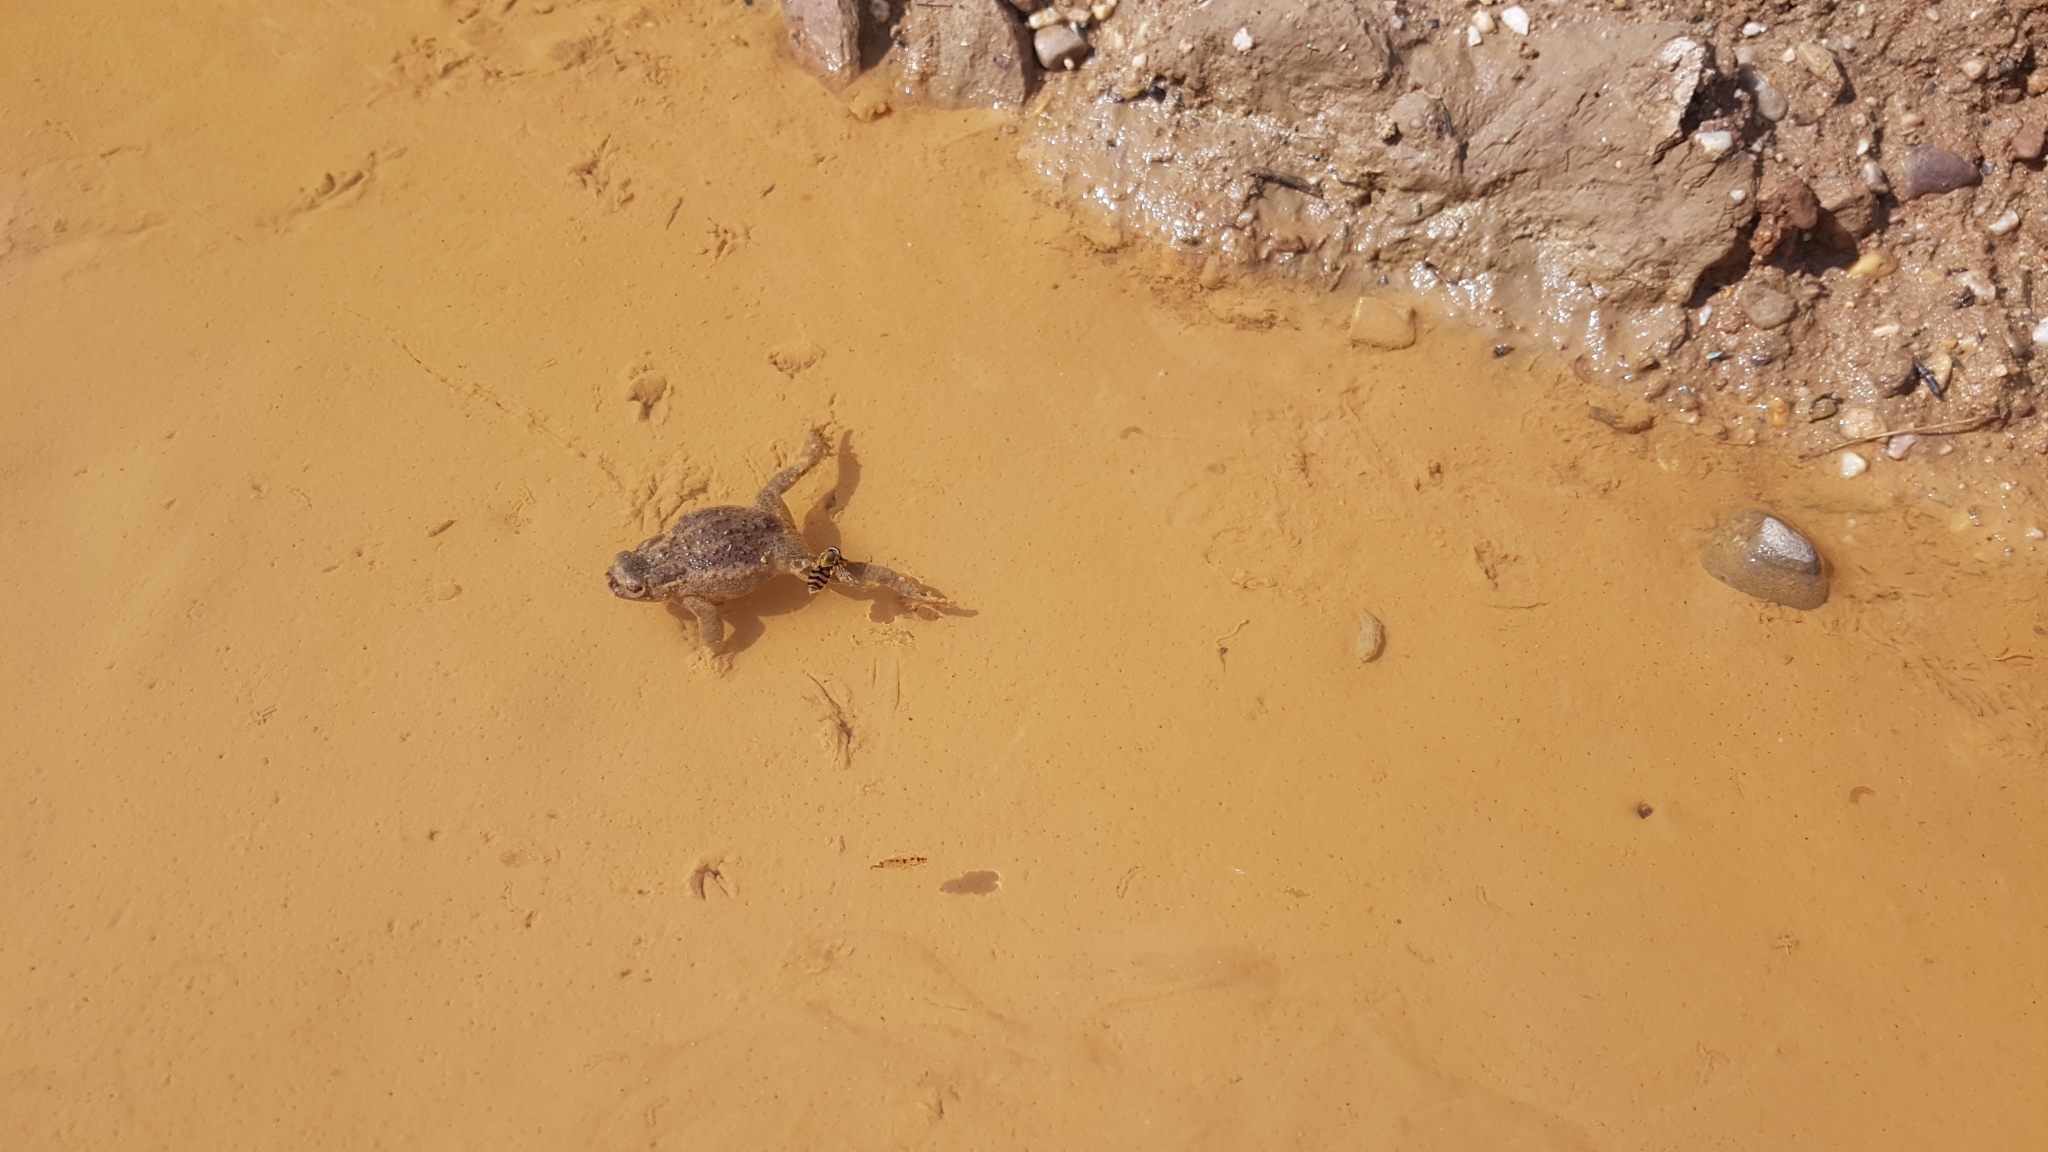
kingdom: Animalia
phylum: Chordata
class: Amphibia
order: Anura
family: Bufonidae
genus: Bufo
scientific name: Bufo bufo
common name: Common toad
